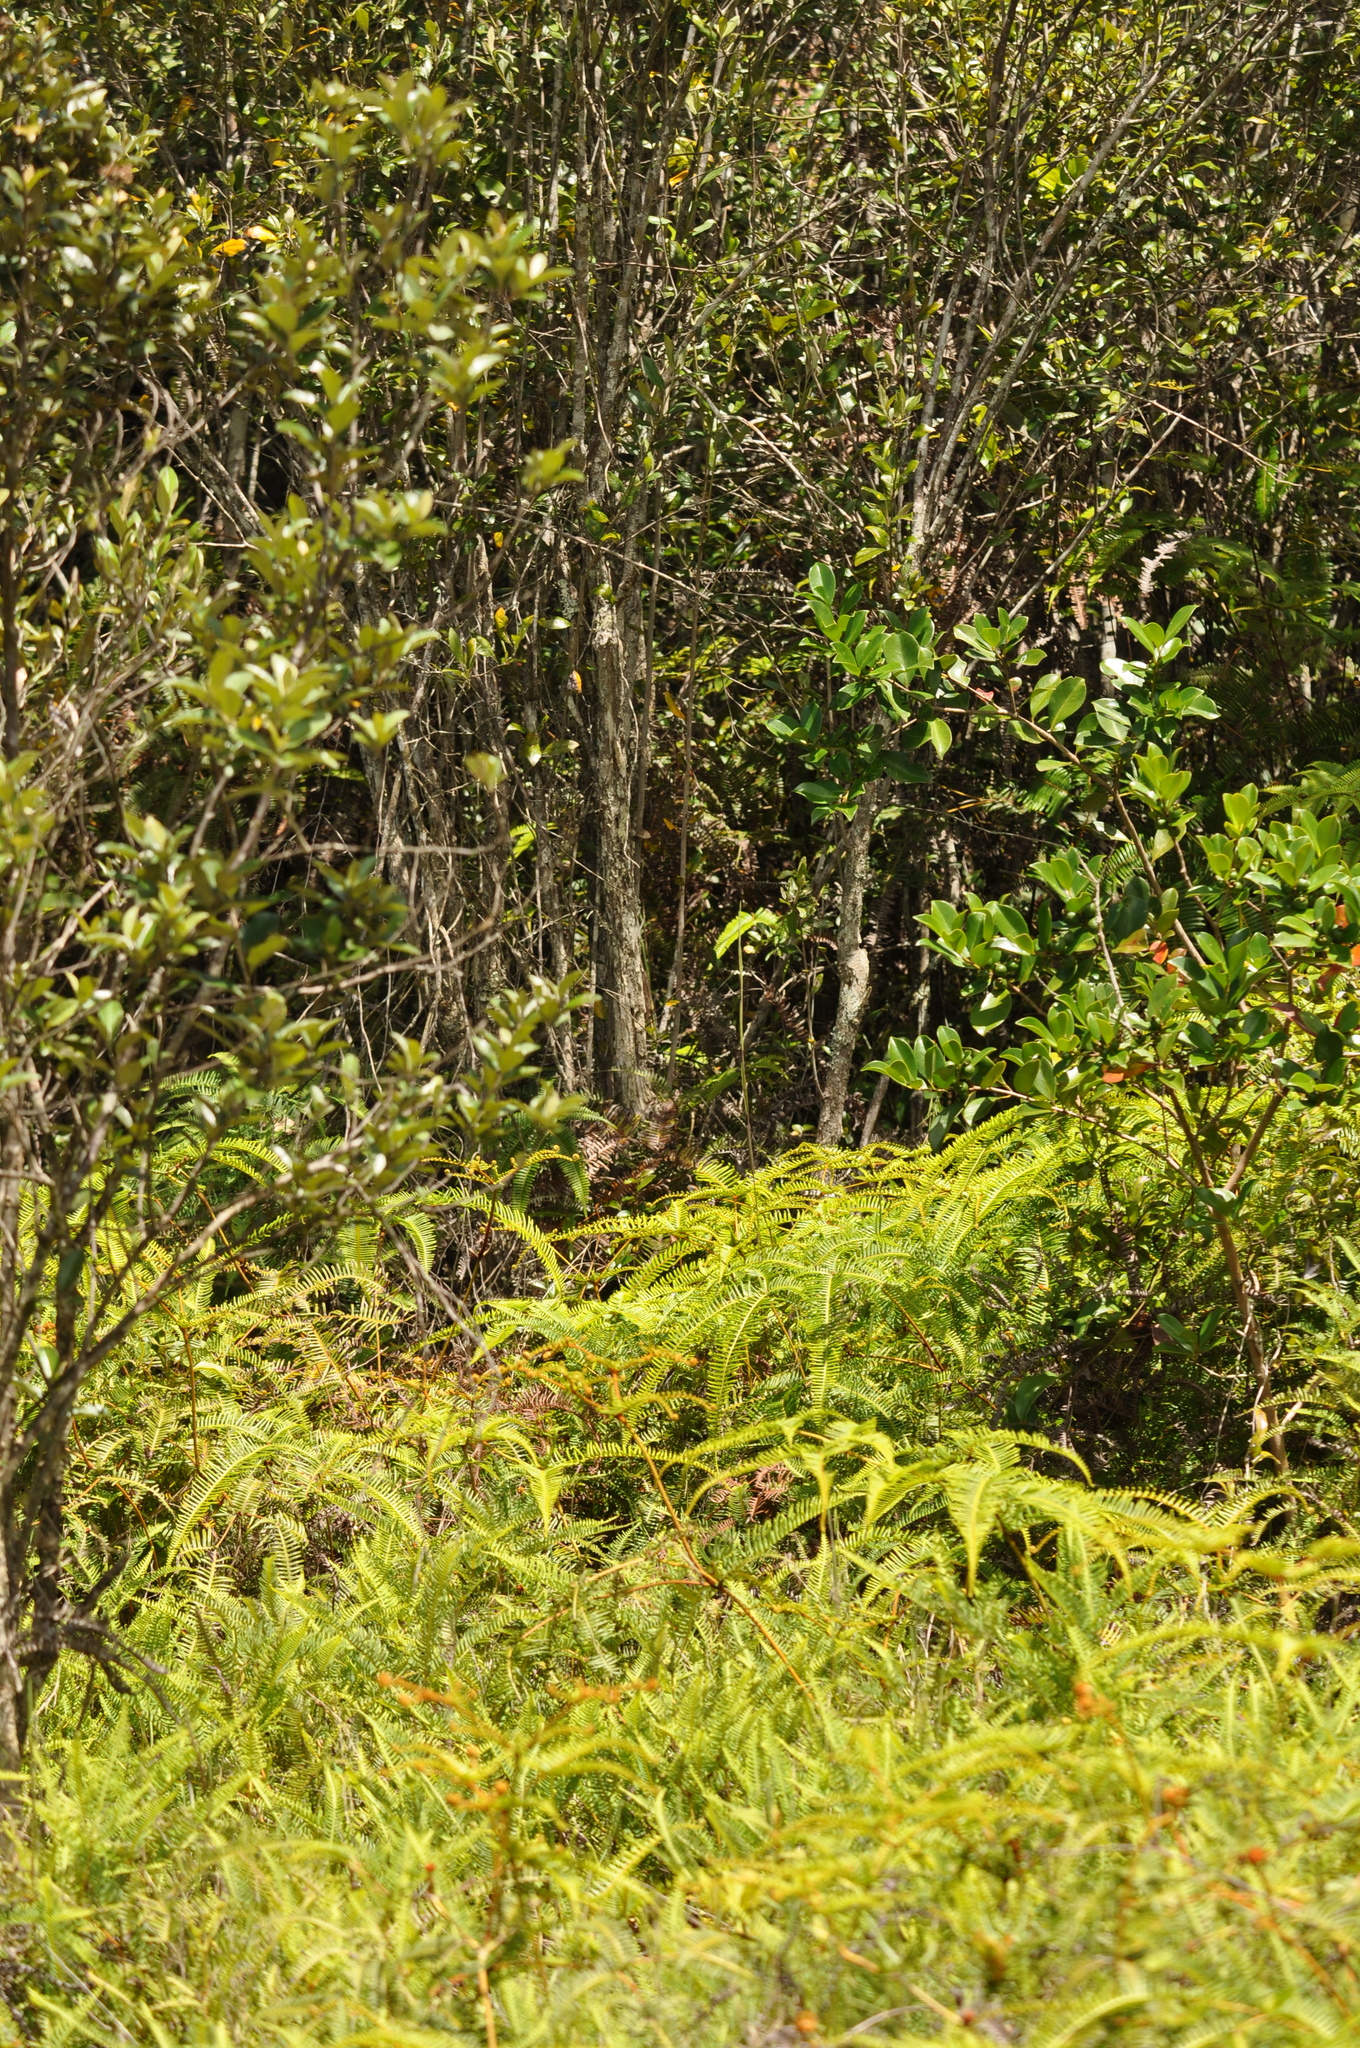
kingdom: Plantae
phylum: Tracheophyta
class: Polypodiopsida
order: Gleicheniales
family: Gleicheniaceae
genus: Dicranopteris
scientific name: Dicranopteris linearis
